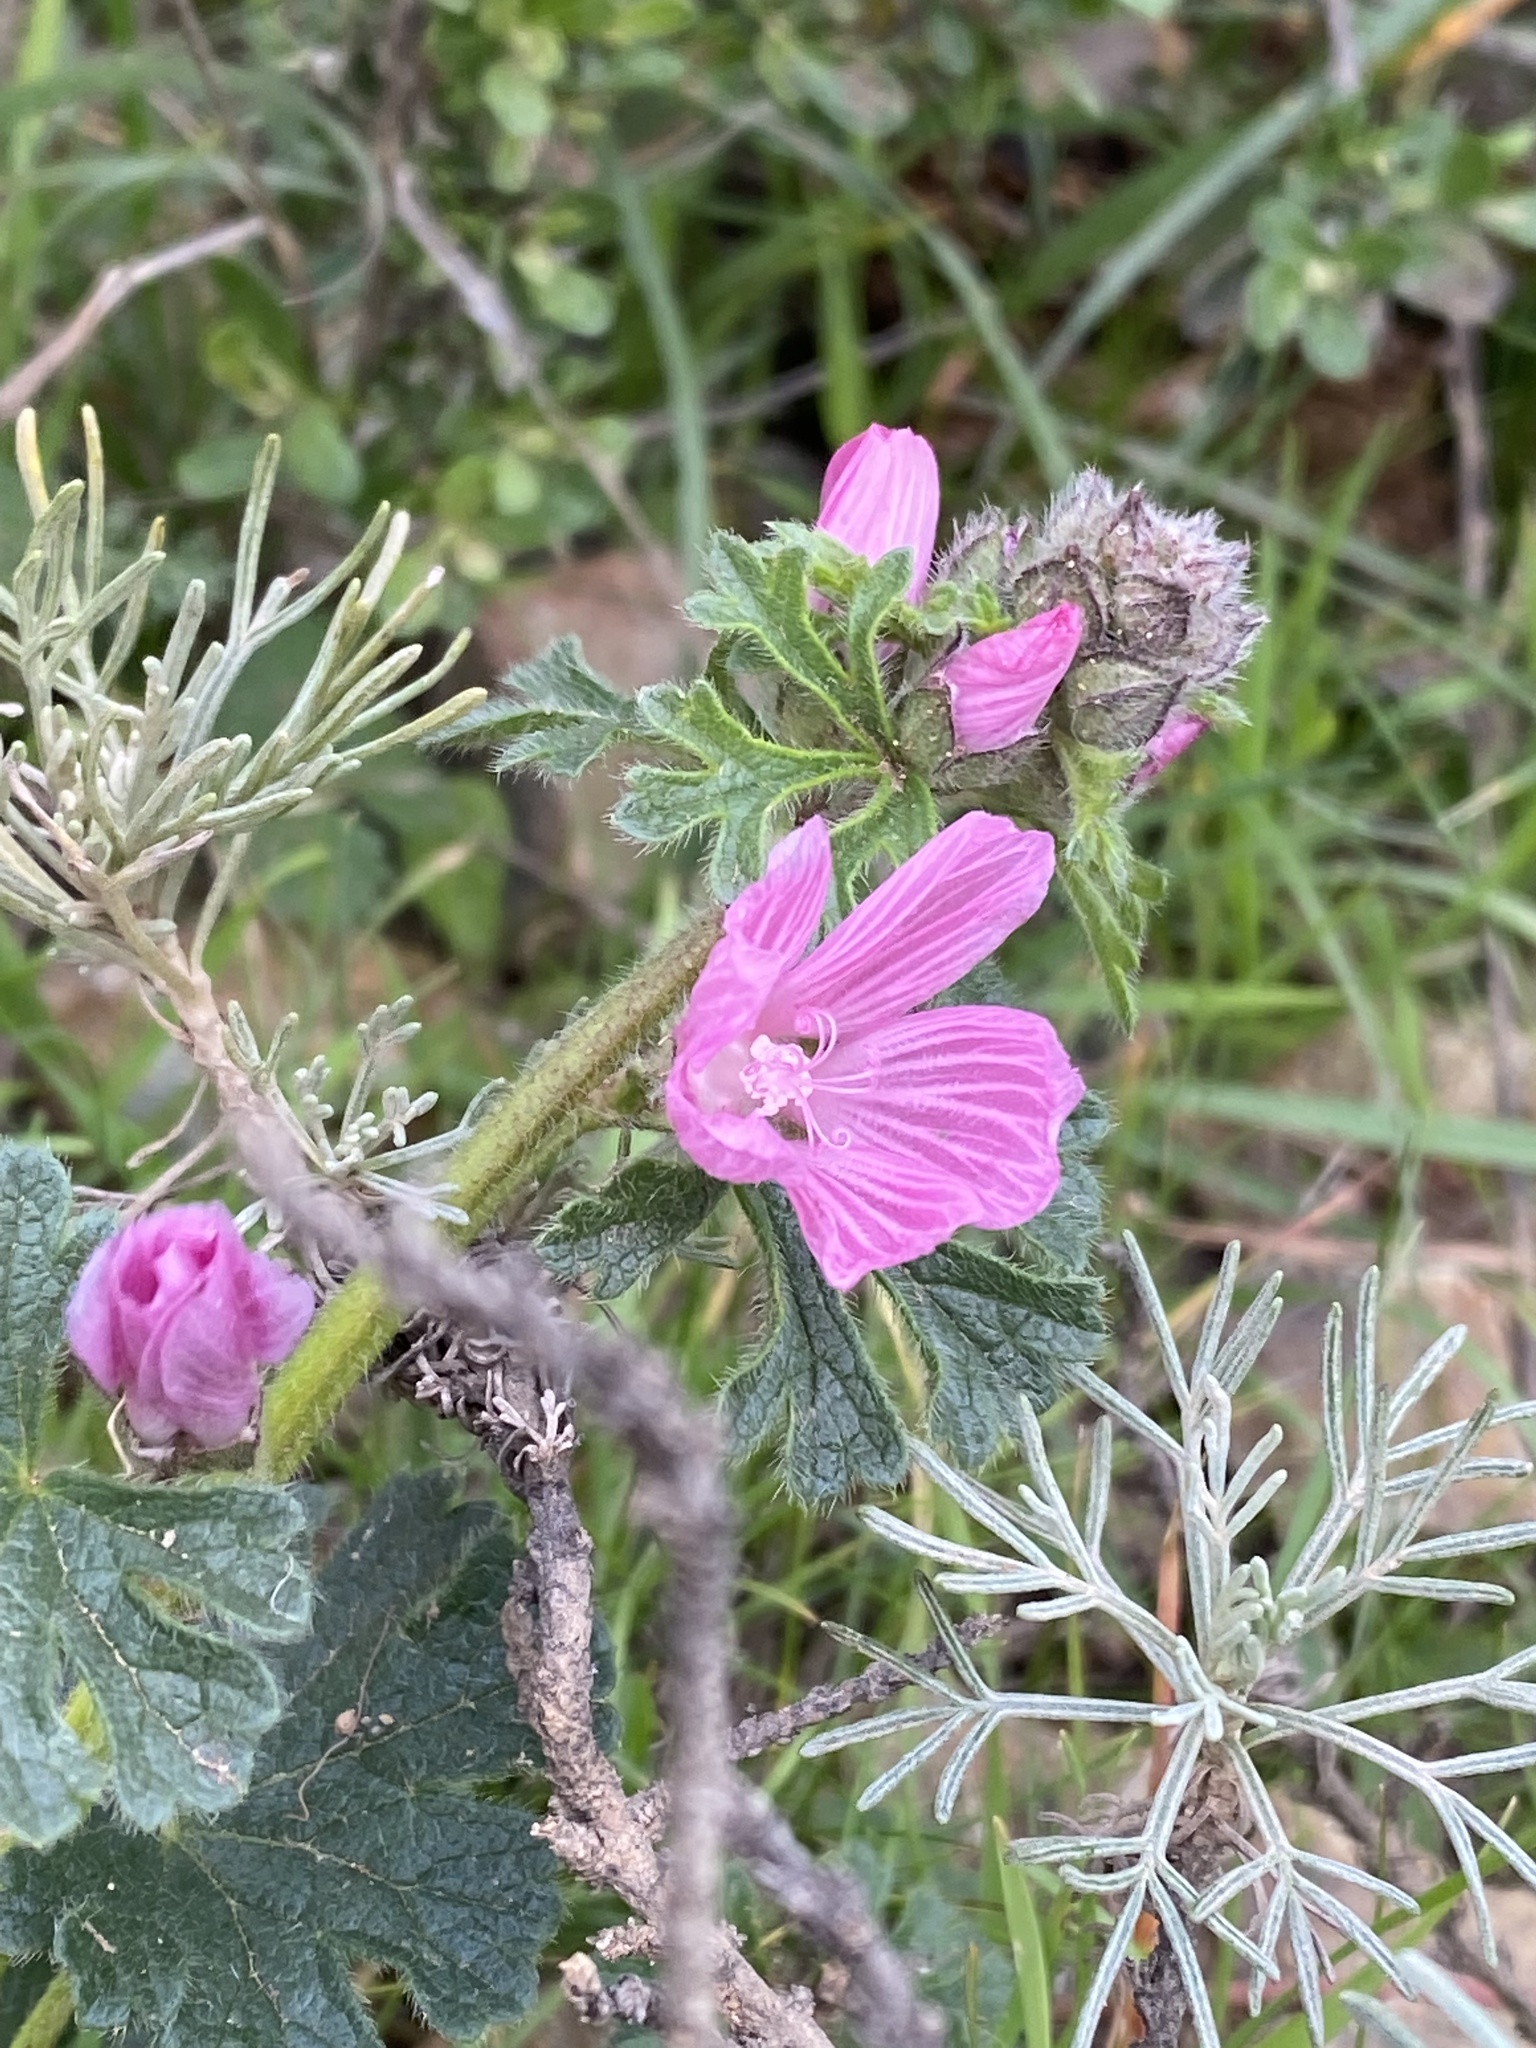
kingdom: Plantae
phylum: Tracheophyta
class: Magnoliopsida
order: Malvales
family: Malvaceae
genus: Sidalcea
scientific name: Sidalcea malviflora
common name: Greek mallow
